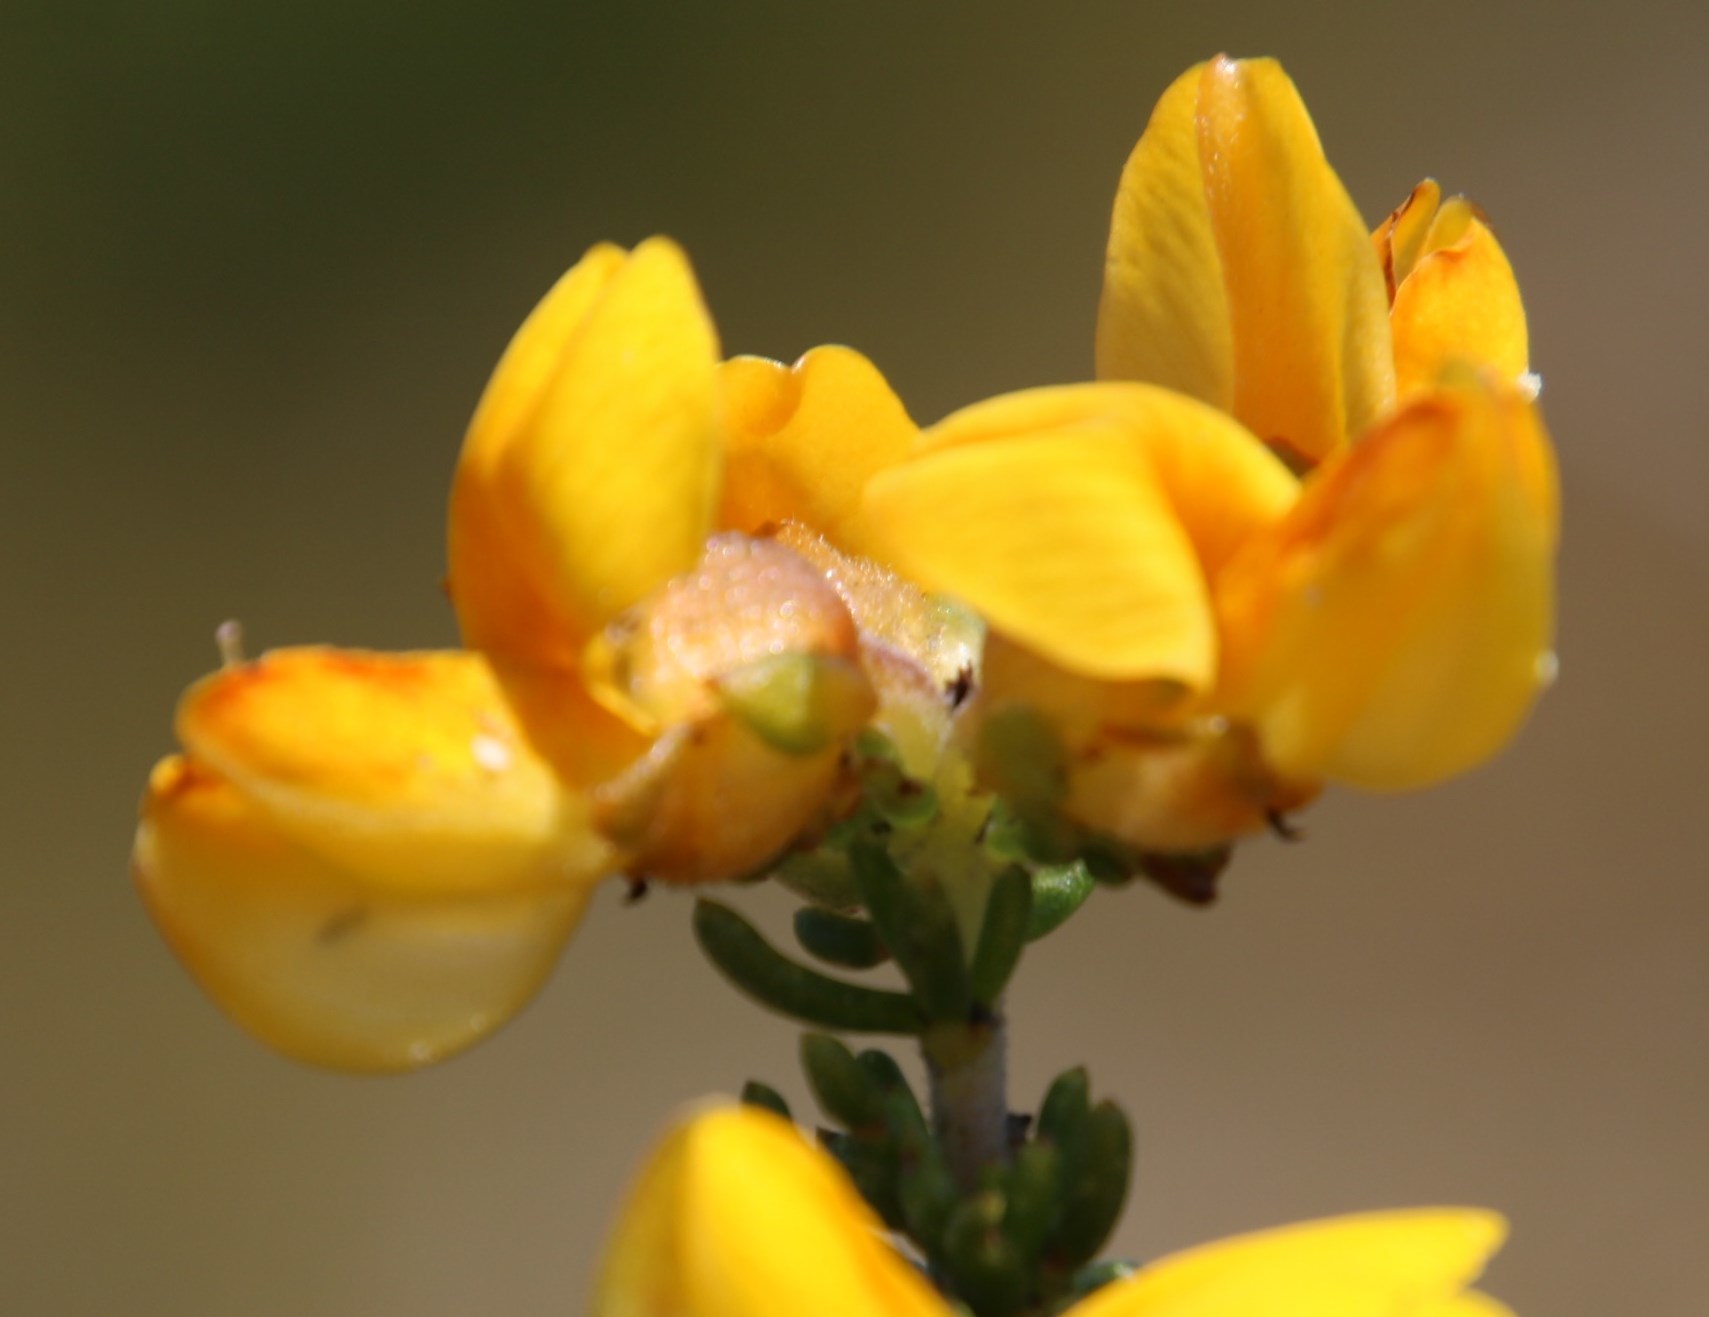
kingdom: Plantae
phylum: Tracheophyta
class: Magnoliopsida
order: Fabales
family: Fabaceae
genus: Aspalathus
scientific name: Aspalathus carnosa
